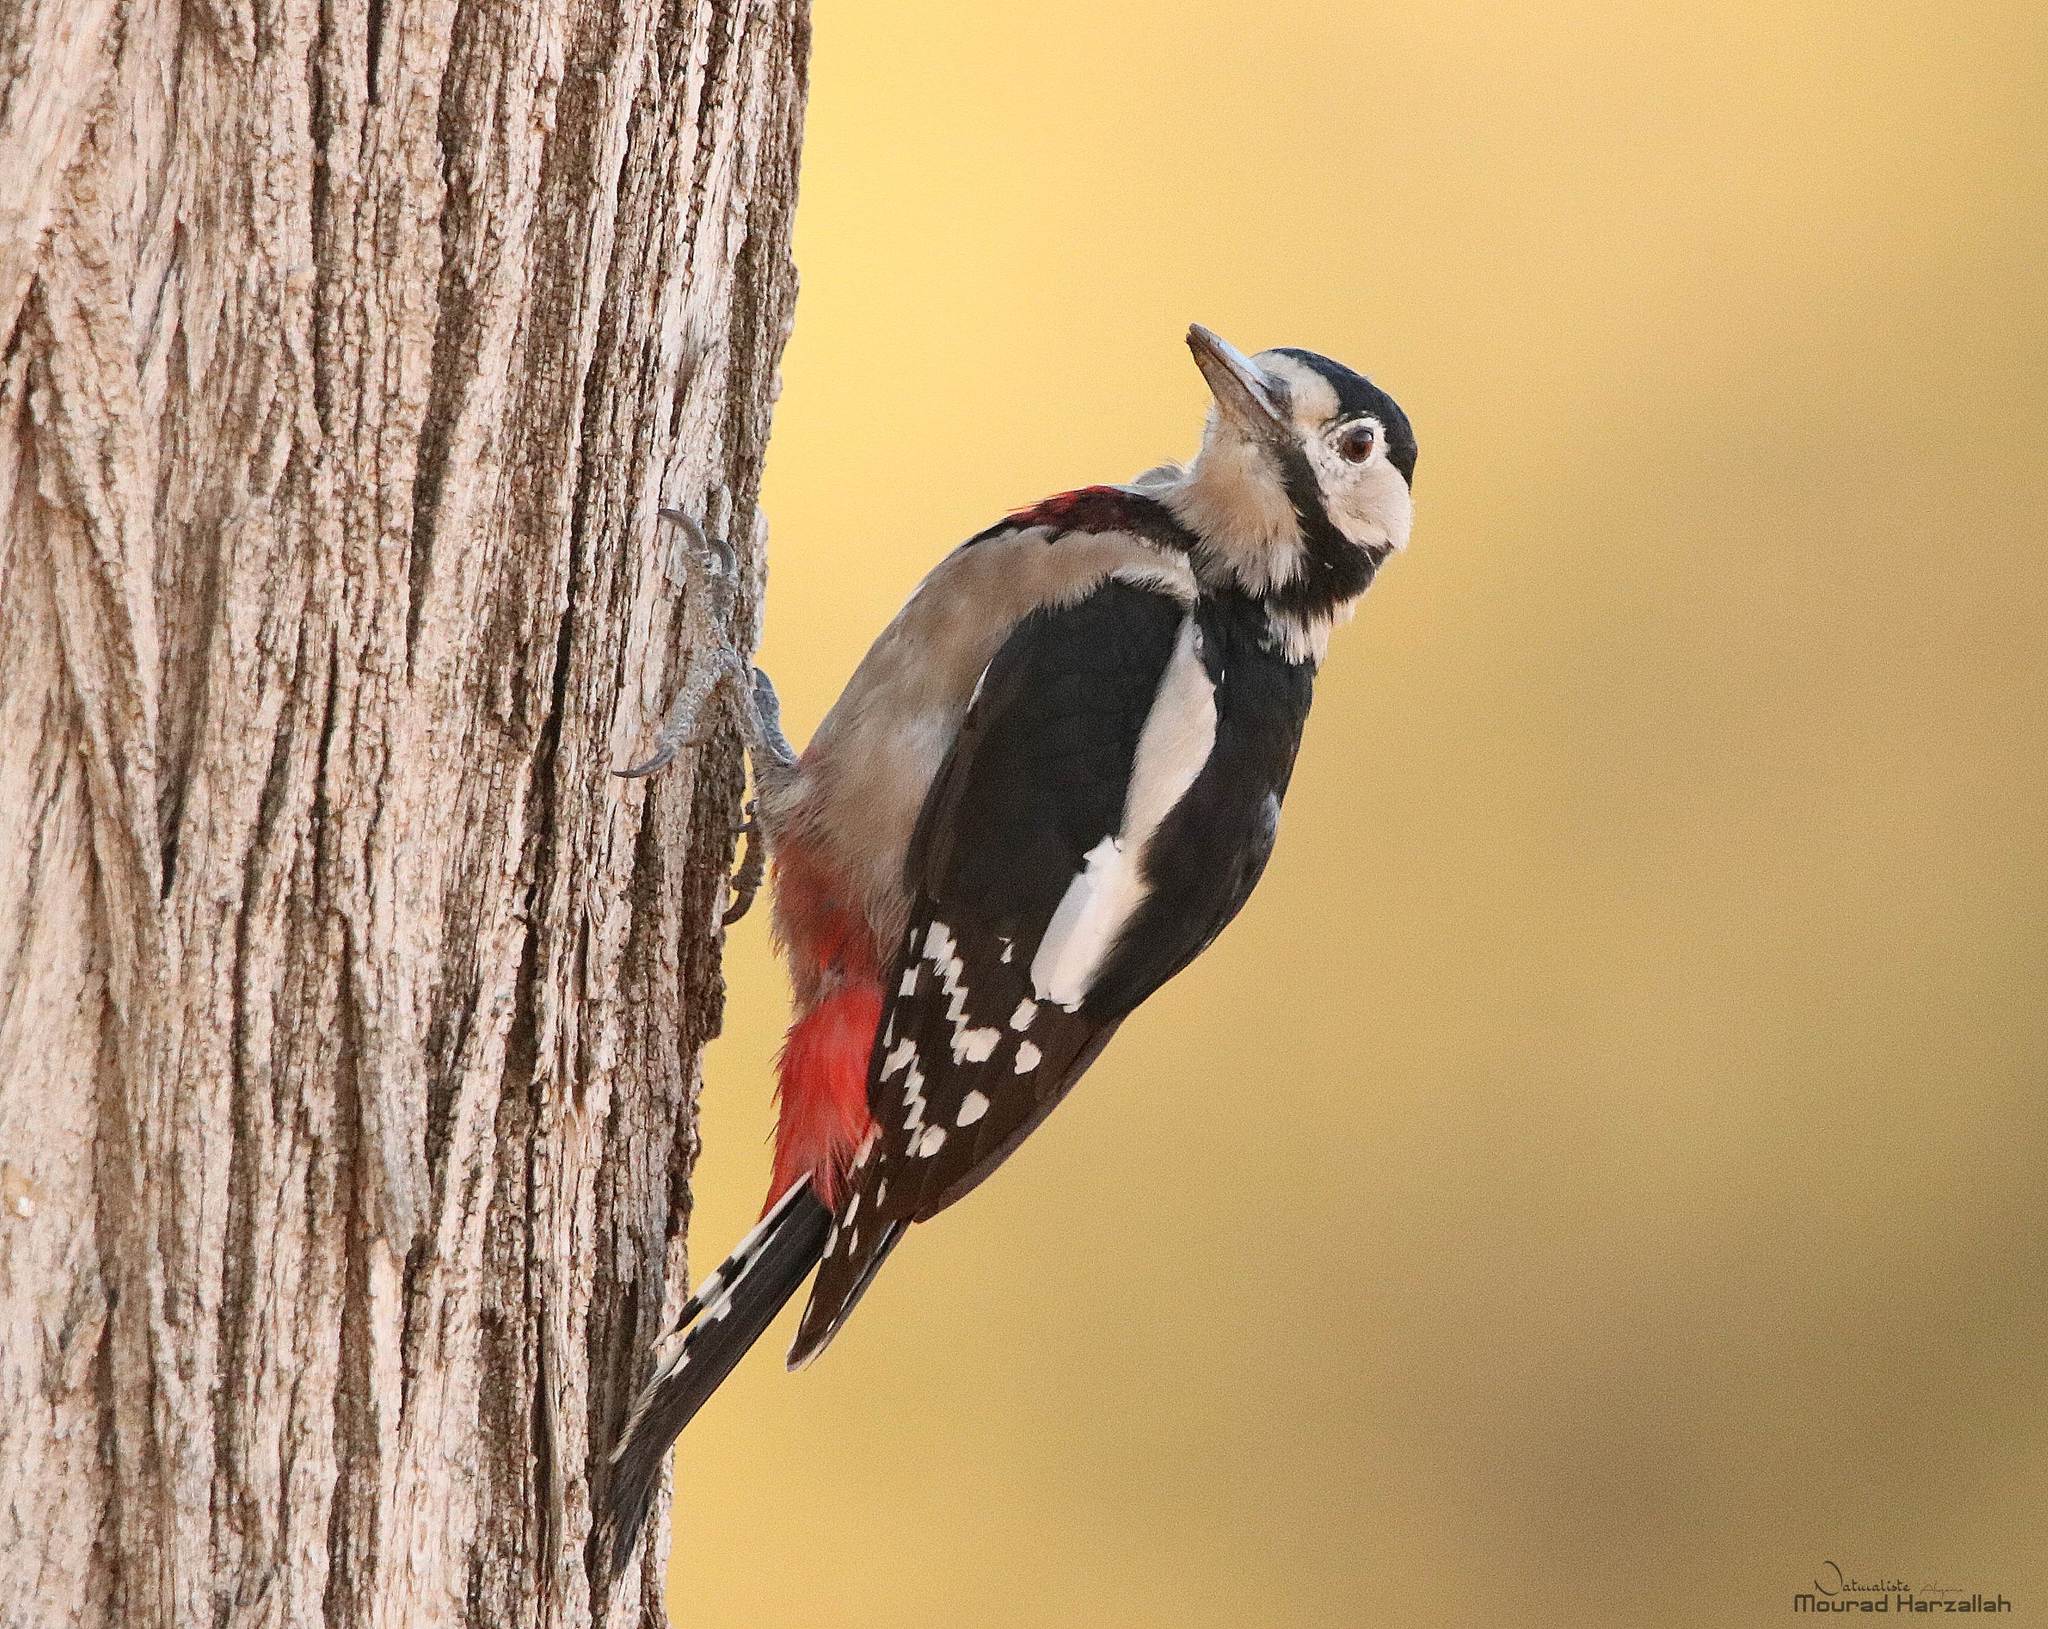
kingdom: Animalia
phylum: Chordata
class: Aves
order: Piciformes
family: Picidae
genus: Dendrocopos
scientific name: Dendrocopos major
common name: Great spotted woodpecker
